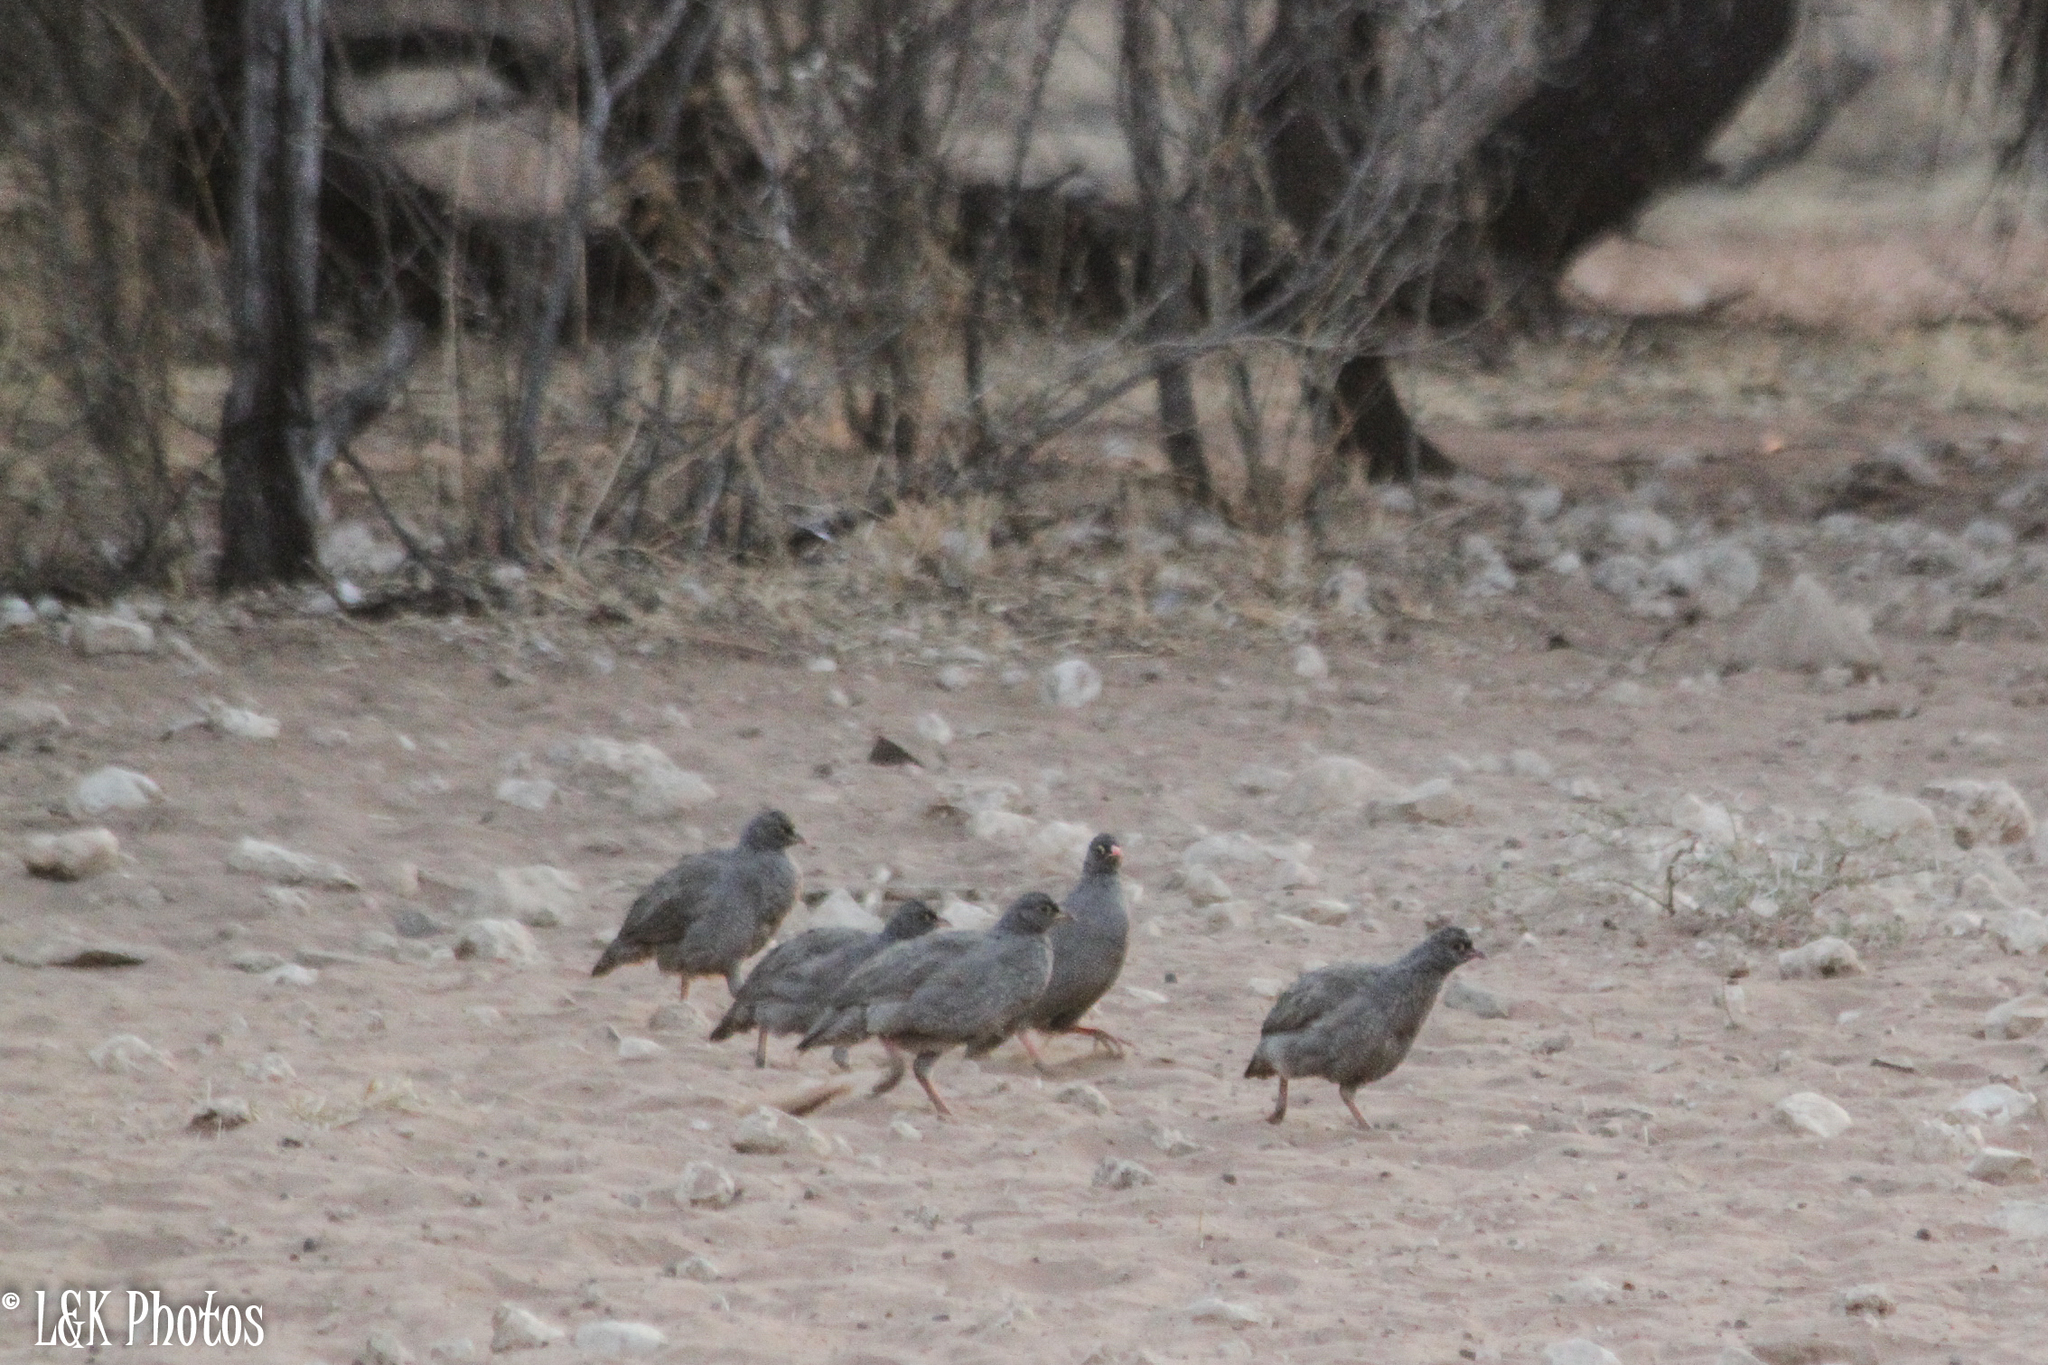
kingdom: Animalia
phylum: Chordata
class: Aves
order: Galliformes
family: Phasianidae
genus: Pternistis
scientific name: Pternistis adspersus
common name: Red-billed spurfowl
